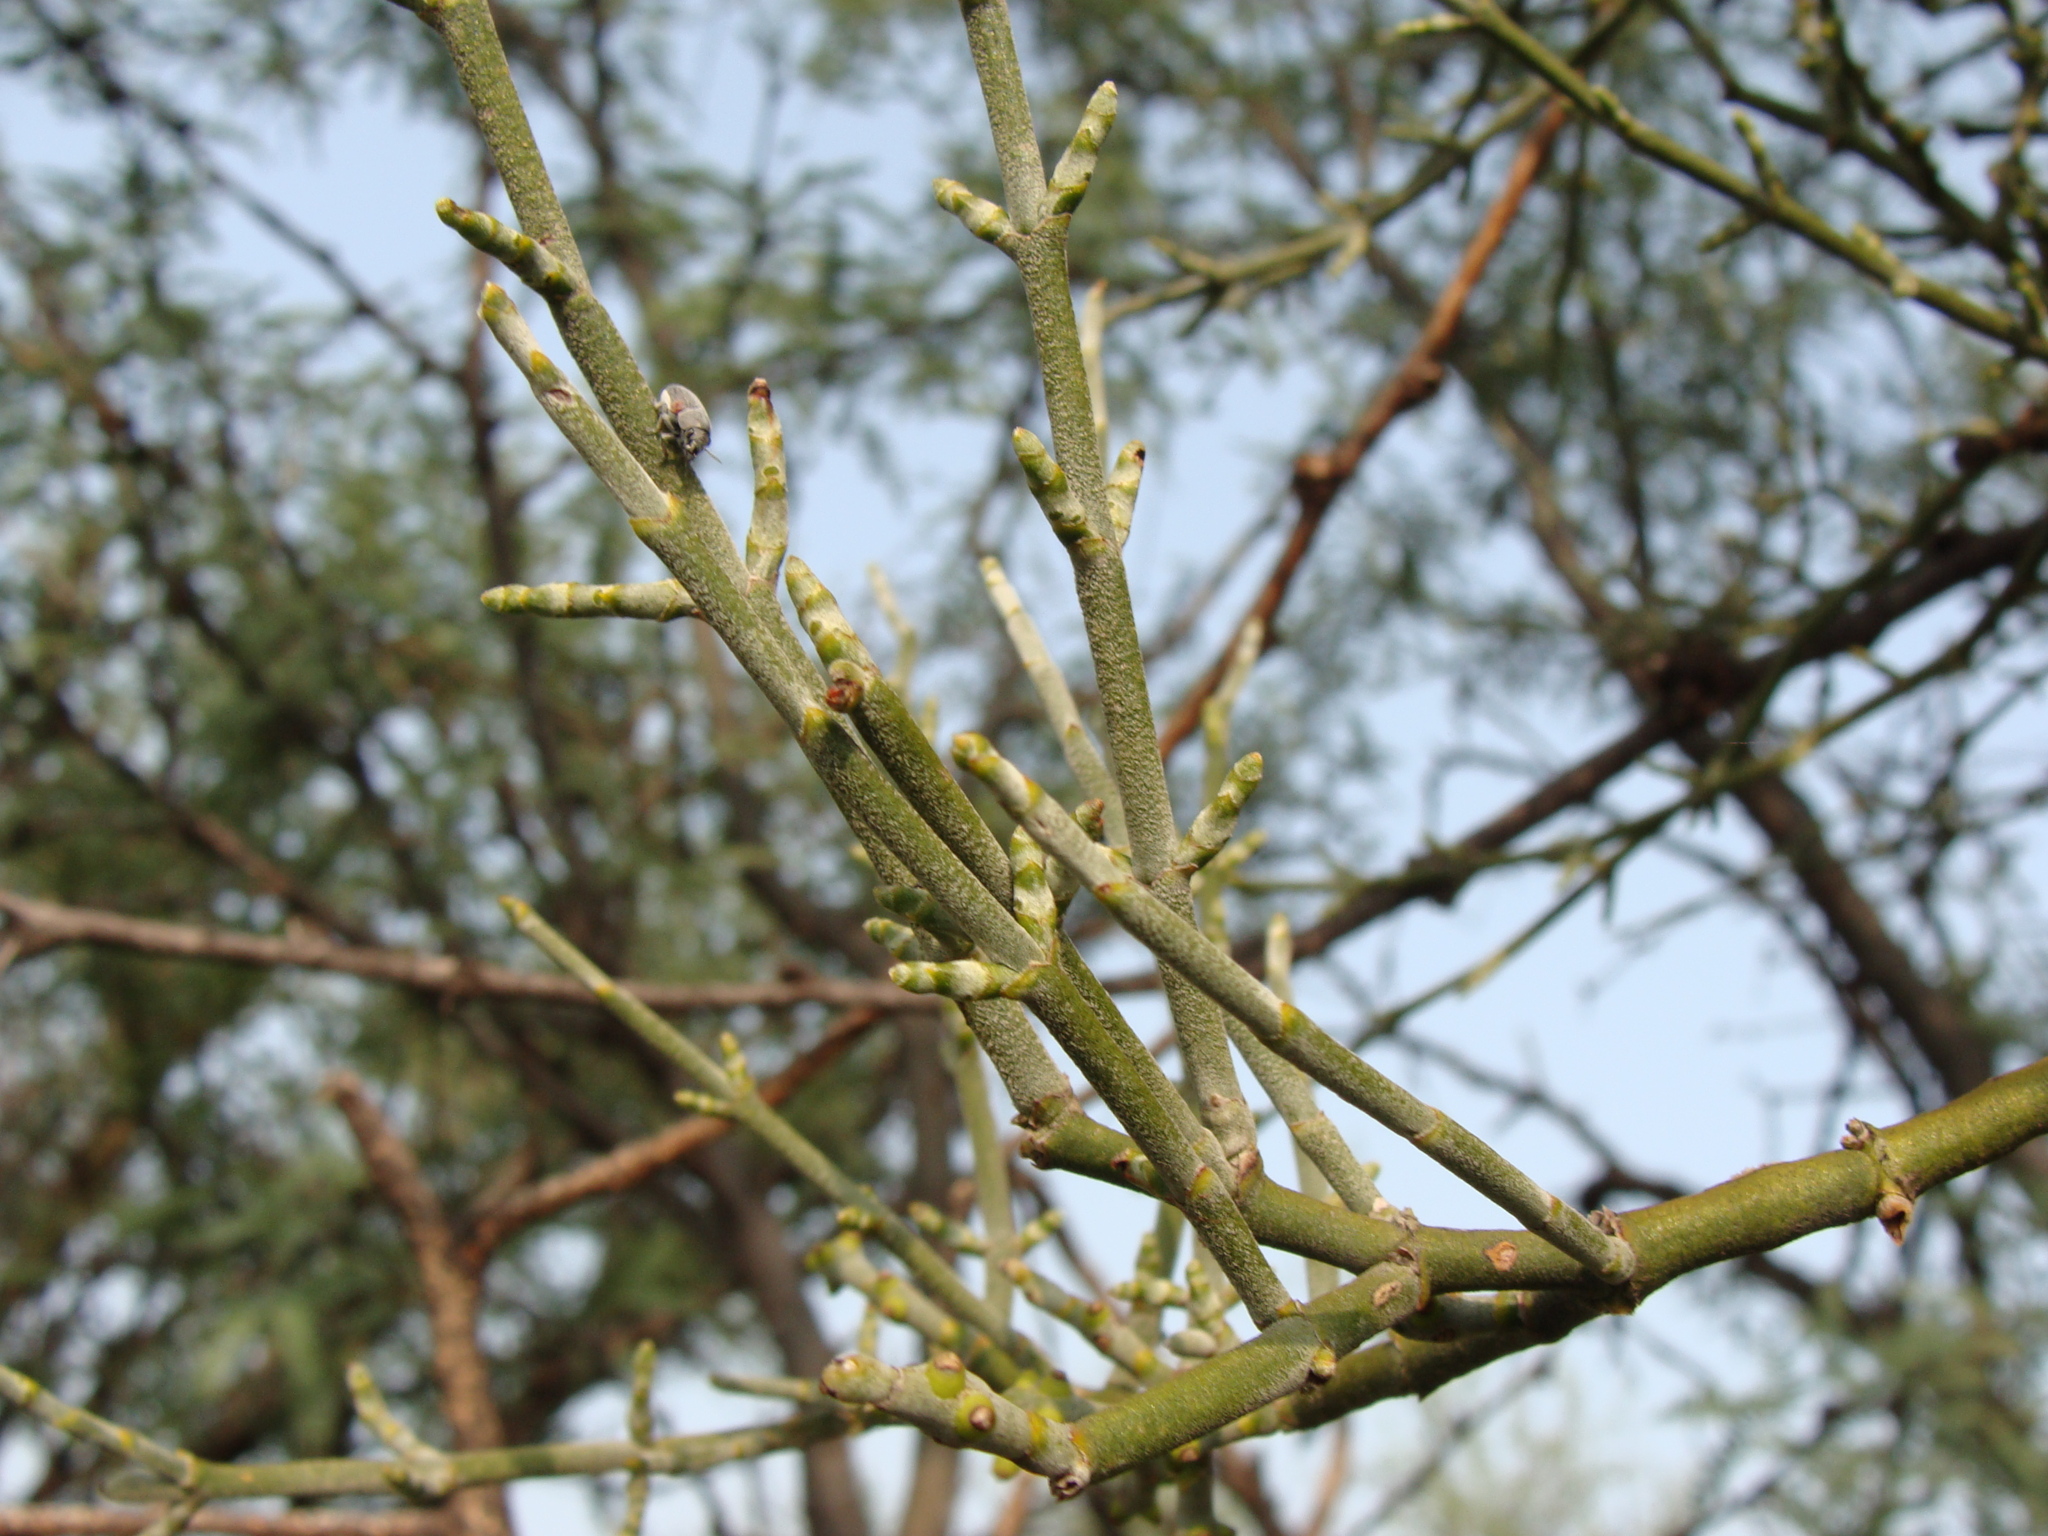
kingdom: Plantae
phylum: Tracheophyta
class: Magnoliopsida
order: Santalales
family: Viscaceae
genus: Phoradendron
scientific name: Phoradendron californicum
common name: Acacia mistletoe
